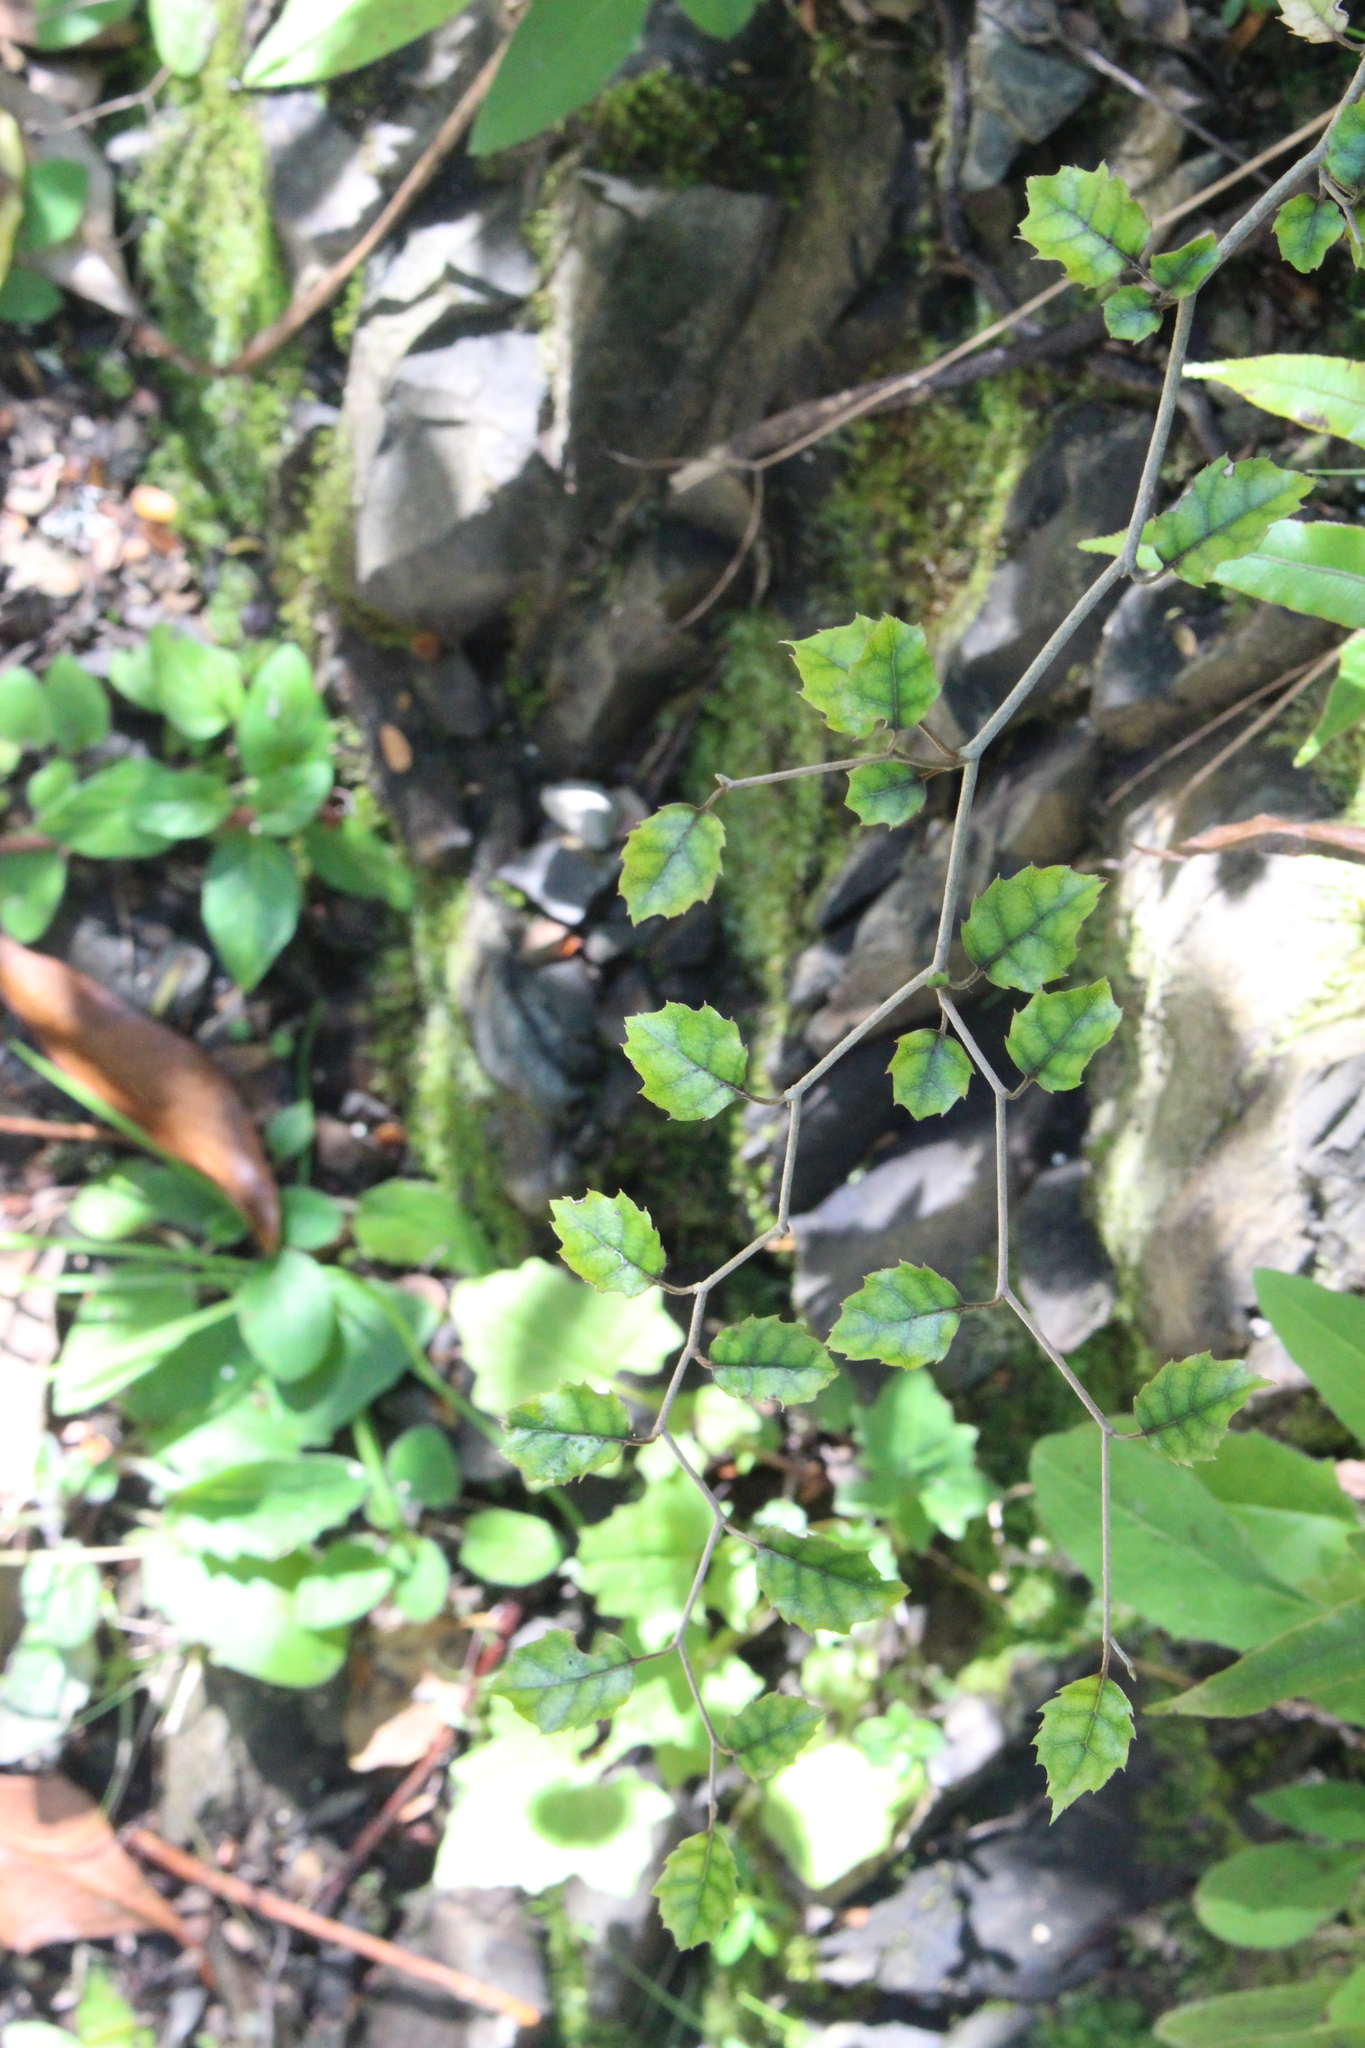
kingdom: Plantae
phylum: Tracheophyta
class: Magnoliopsida
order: Asterales
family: Rousseaceae
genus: Carpodetus
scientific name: Carpodetus serratus
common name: White mapau
